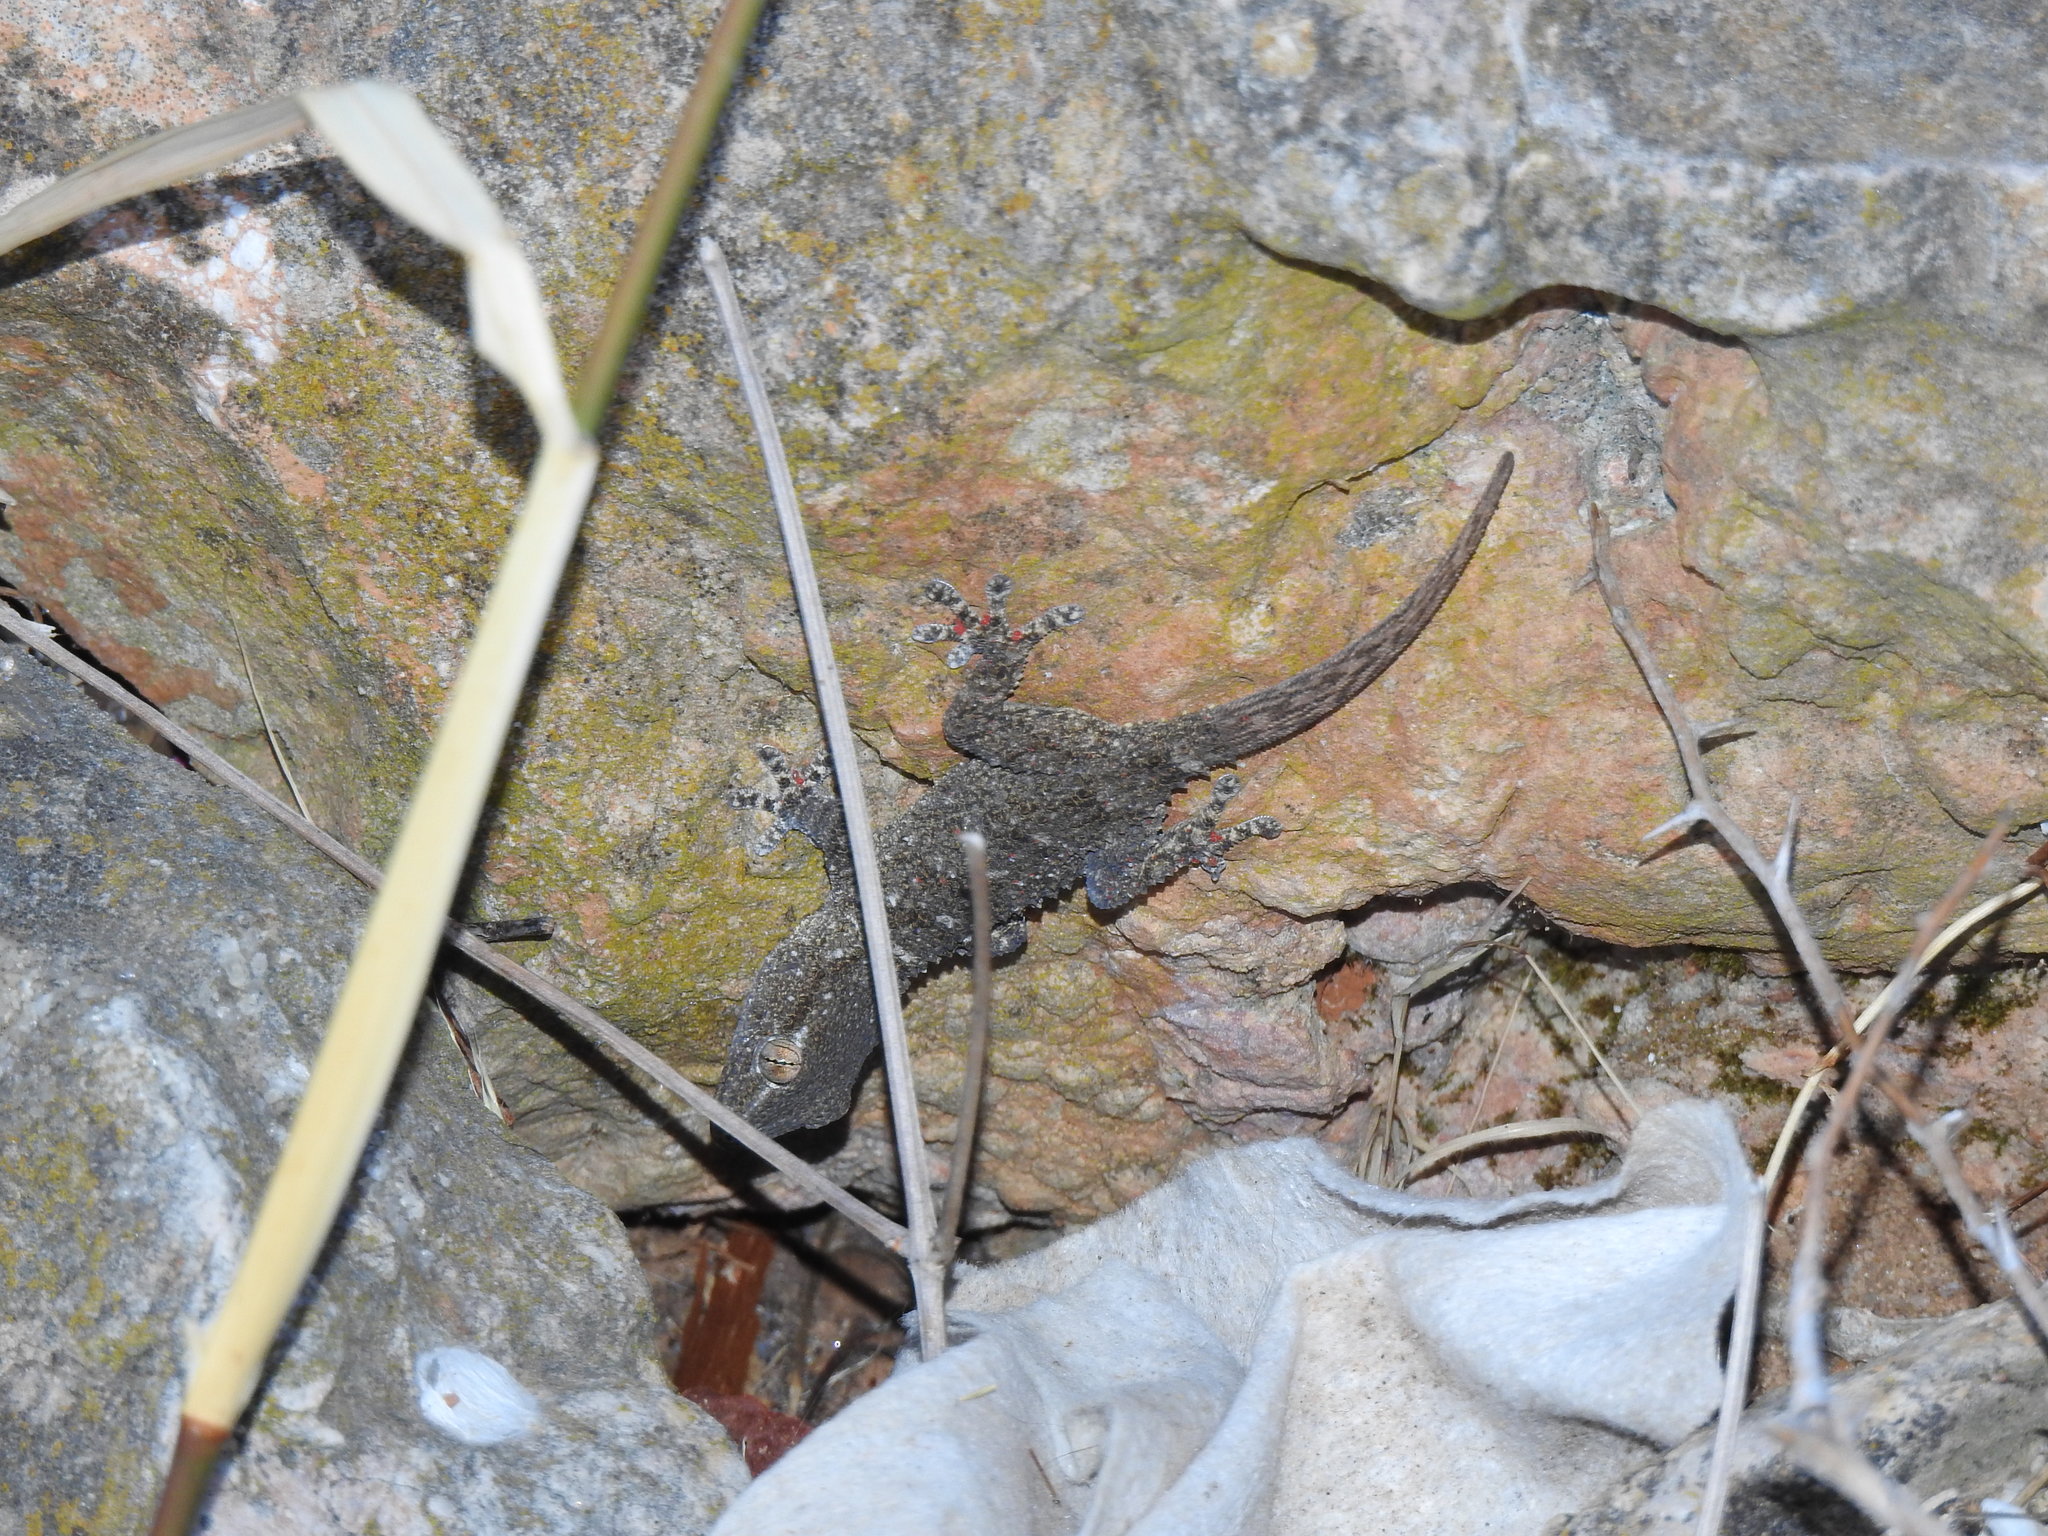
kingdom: Animalia
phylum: Chordata
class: Squamata
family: Phyllodactylidae
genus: Tarentola
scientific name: Tarentola mauritanica
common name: Moorish gecko
